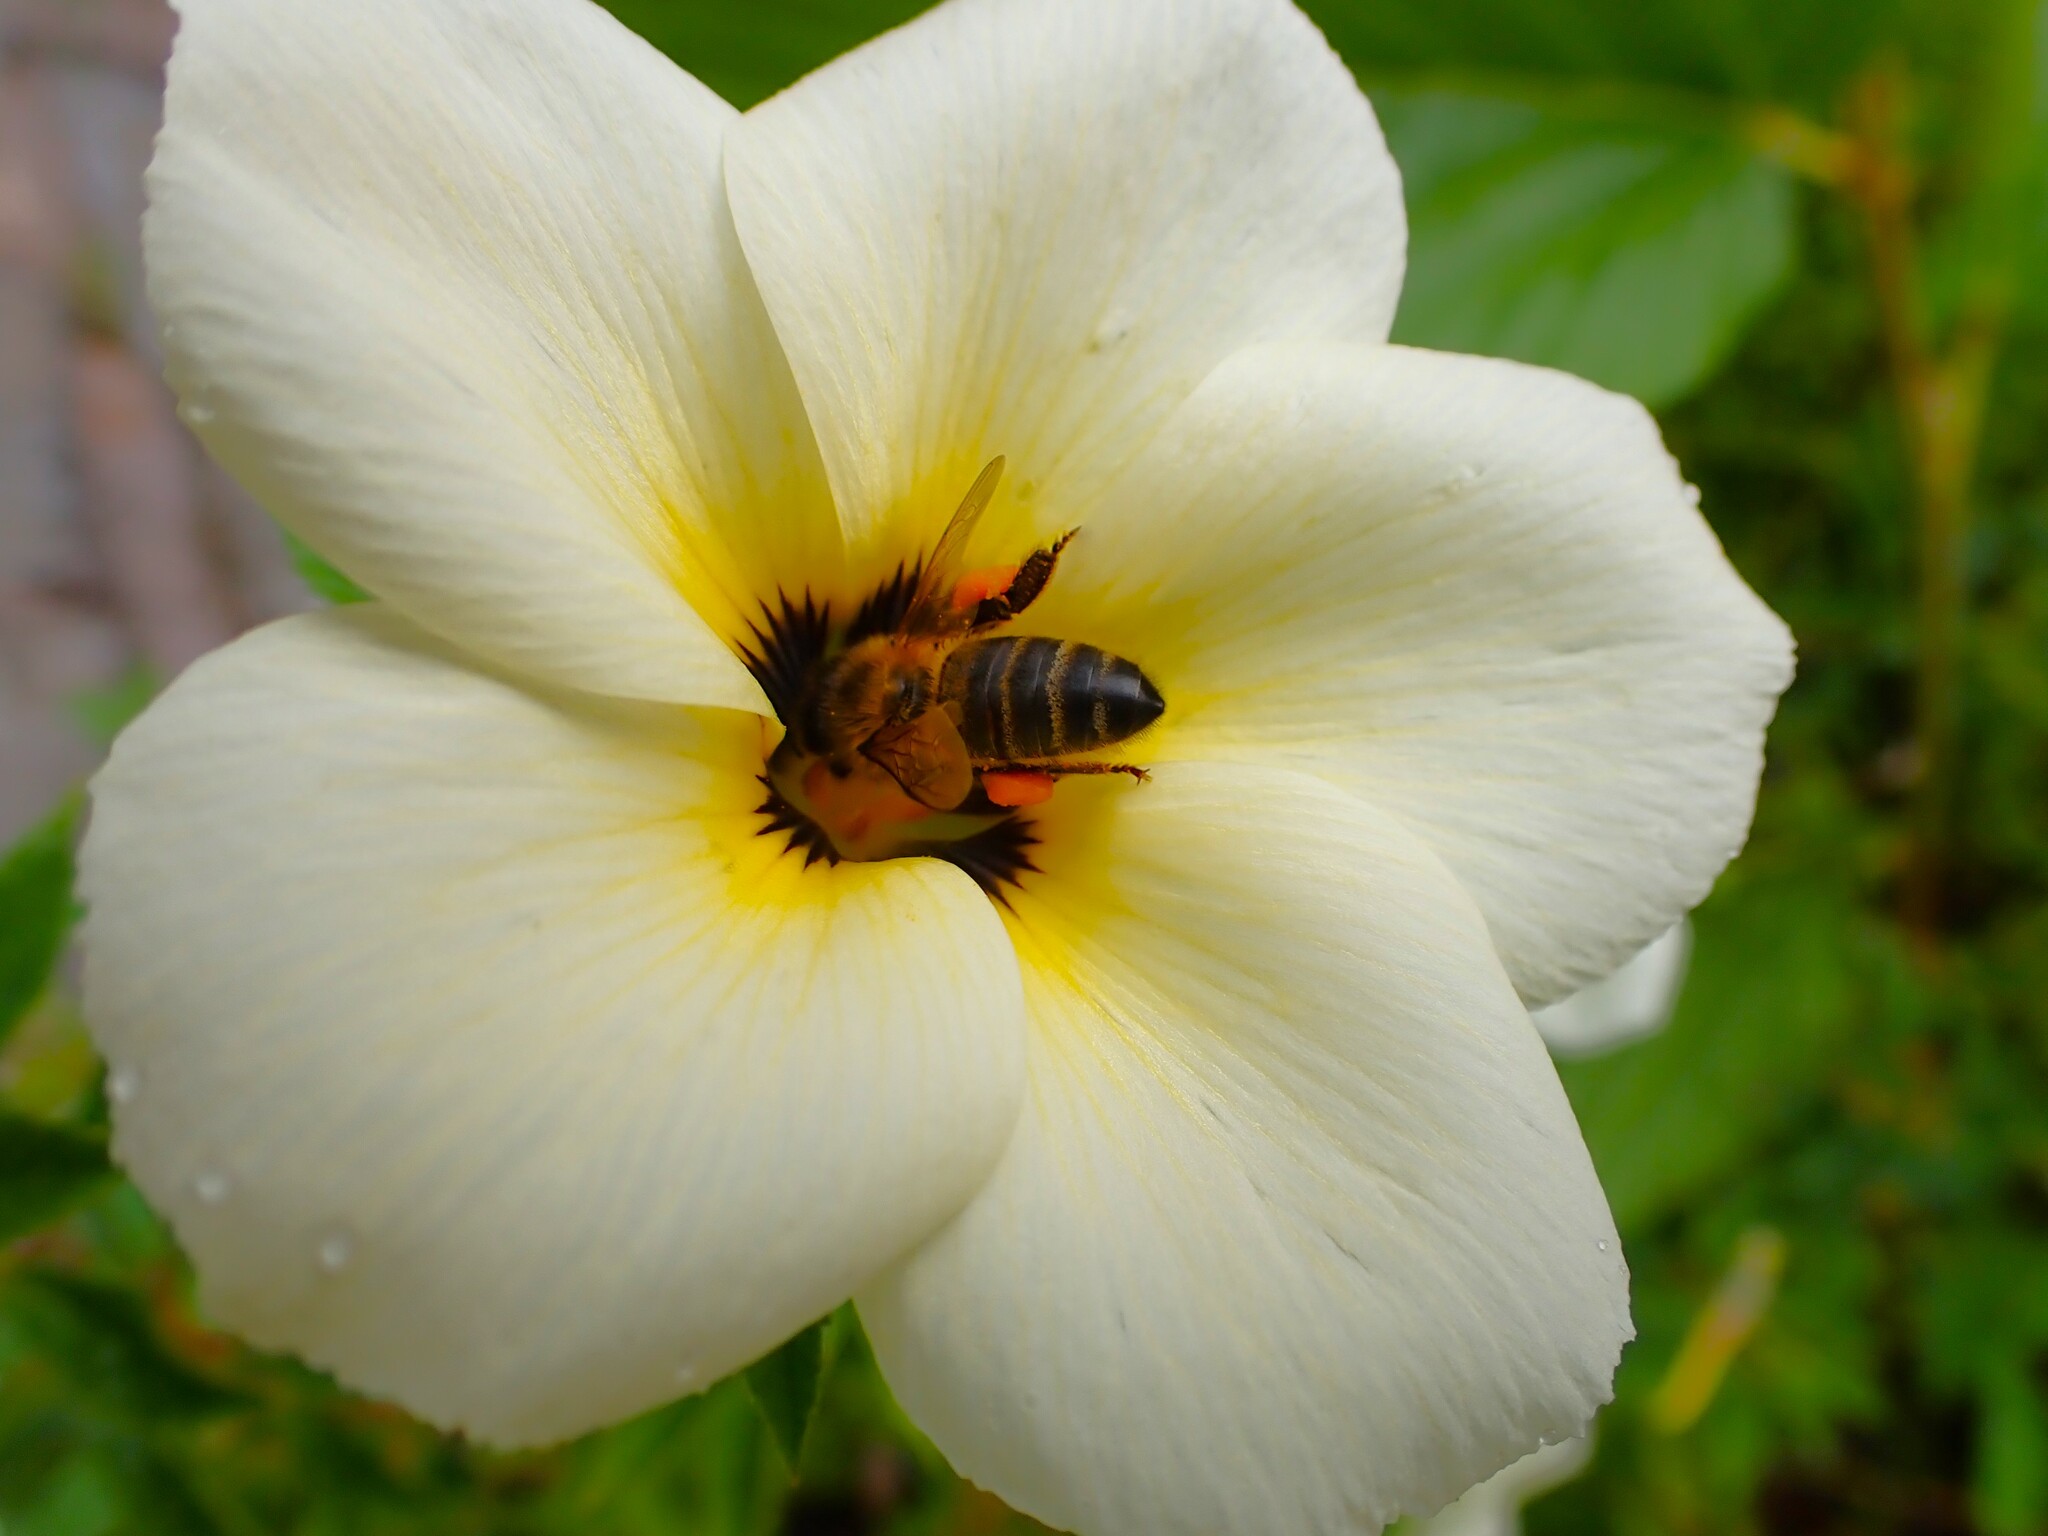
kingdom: Animalia
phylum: Arthropoda
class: Insecta
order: Hymenoptera
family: Apidae
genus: Apis
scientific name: Apis mellifera
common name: Honey bee
